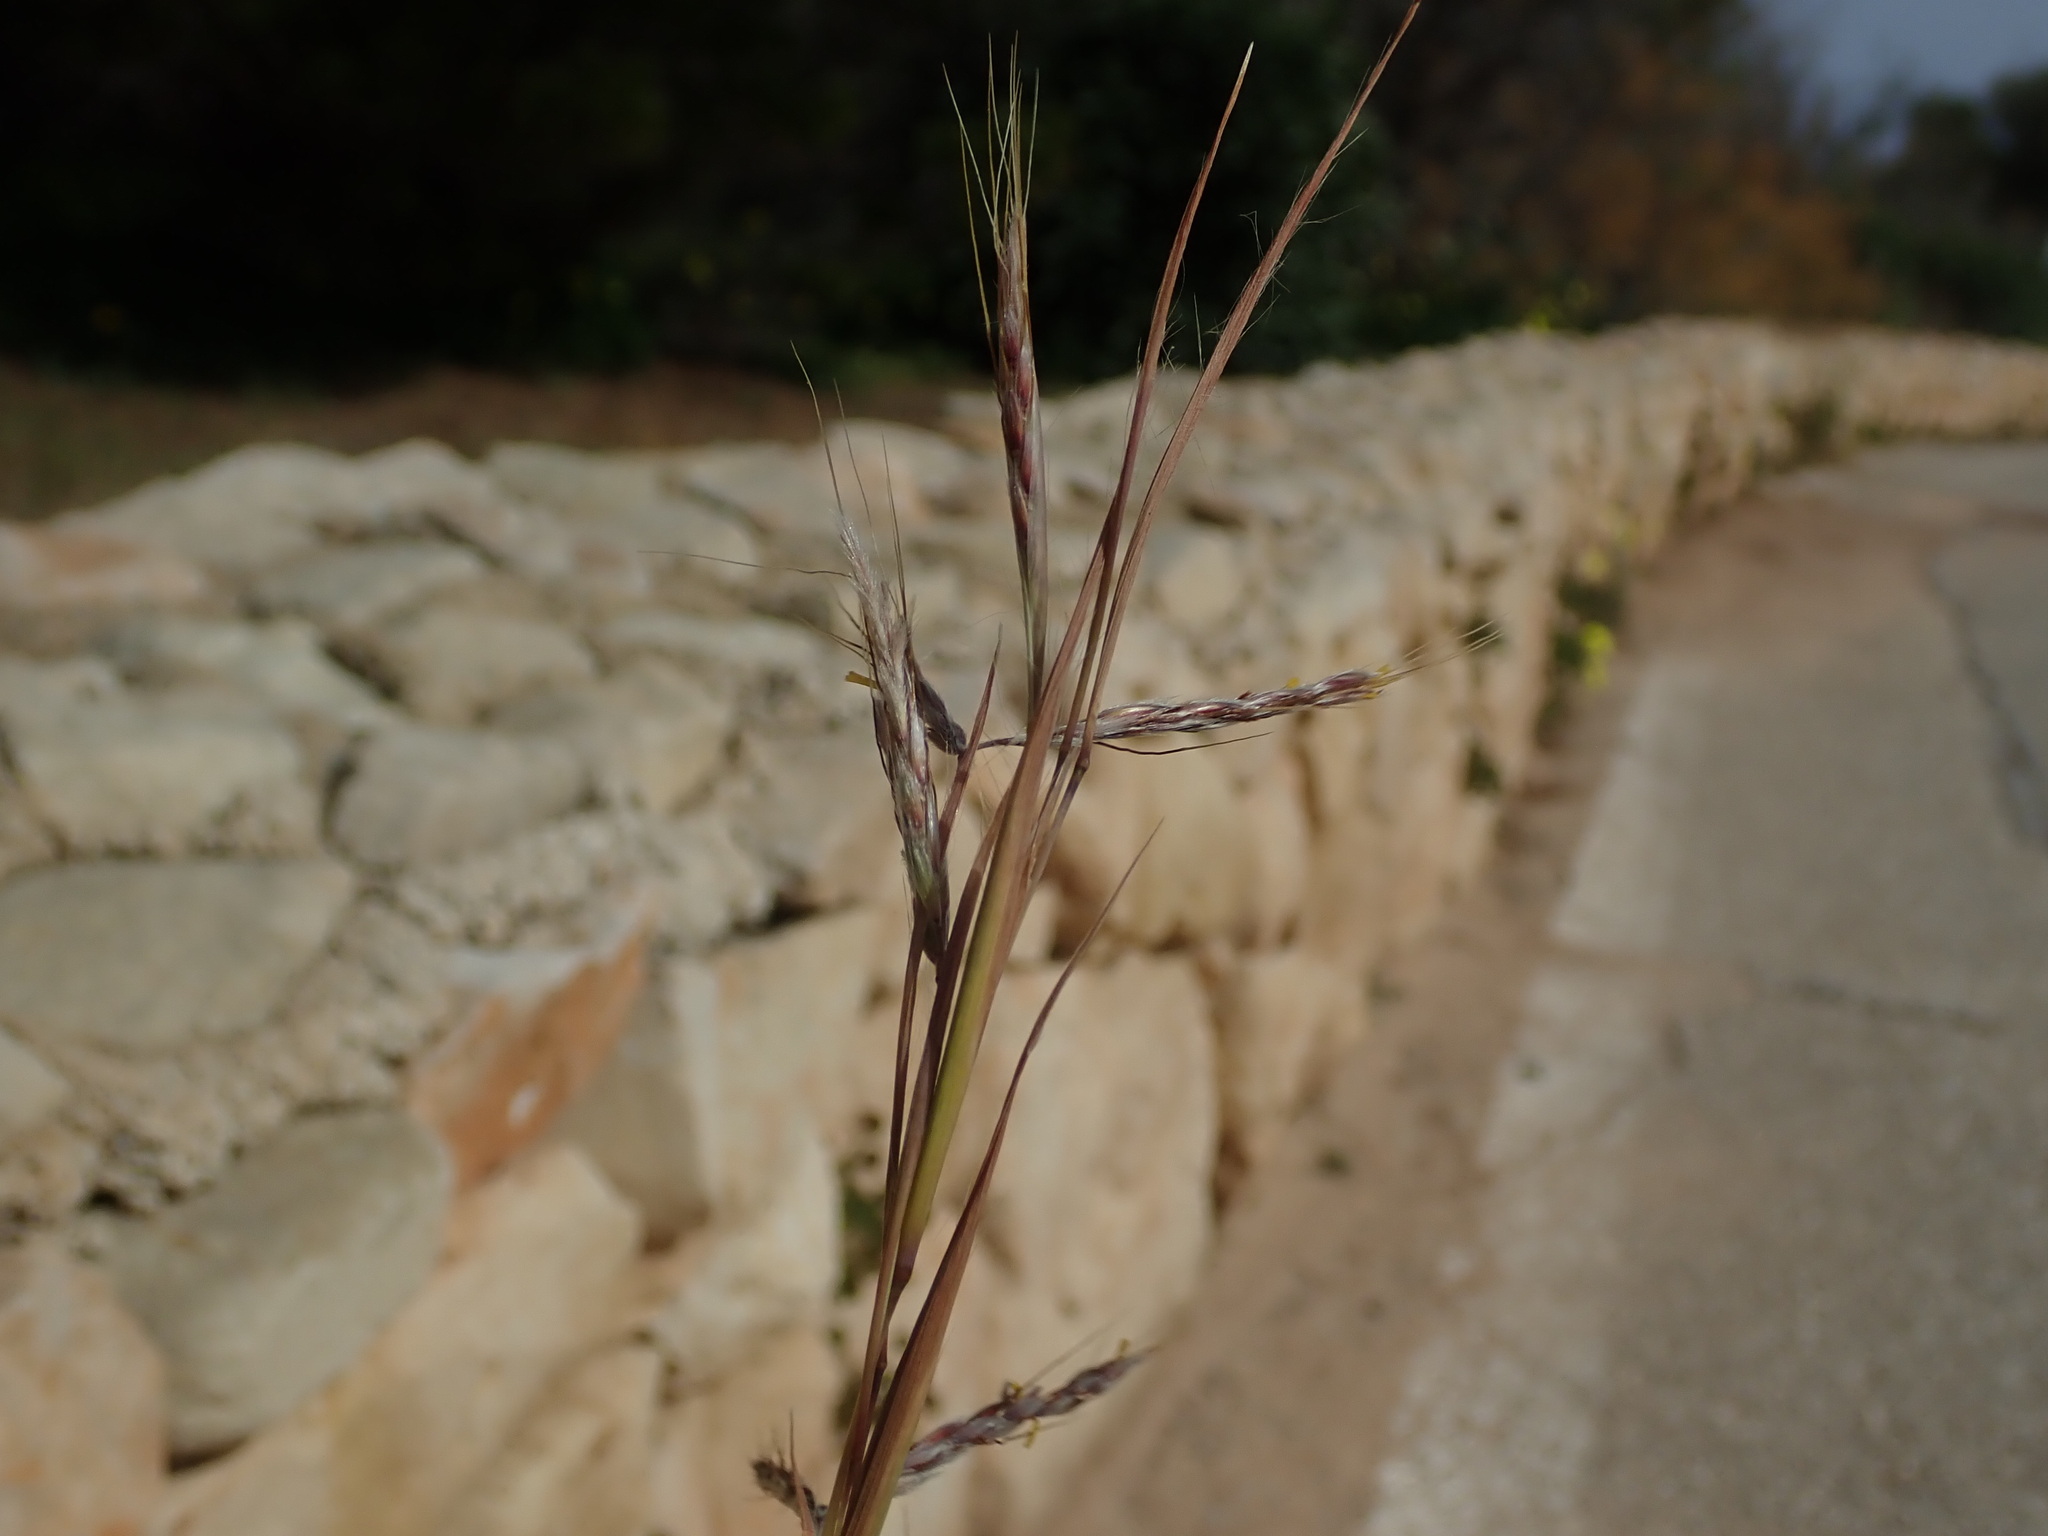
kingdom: Plantae
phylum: Tracheophyta
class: Liliopsida
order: Poales
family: Poaceae
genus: Hyparrhenia
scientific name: Hyparrhenia hirta
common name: Thatching grass
